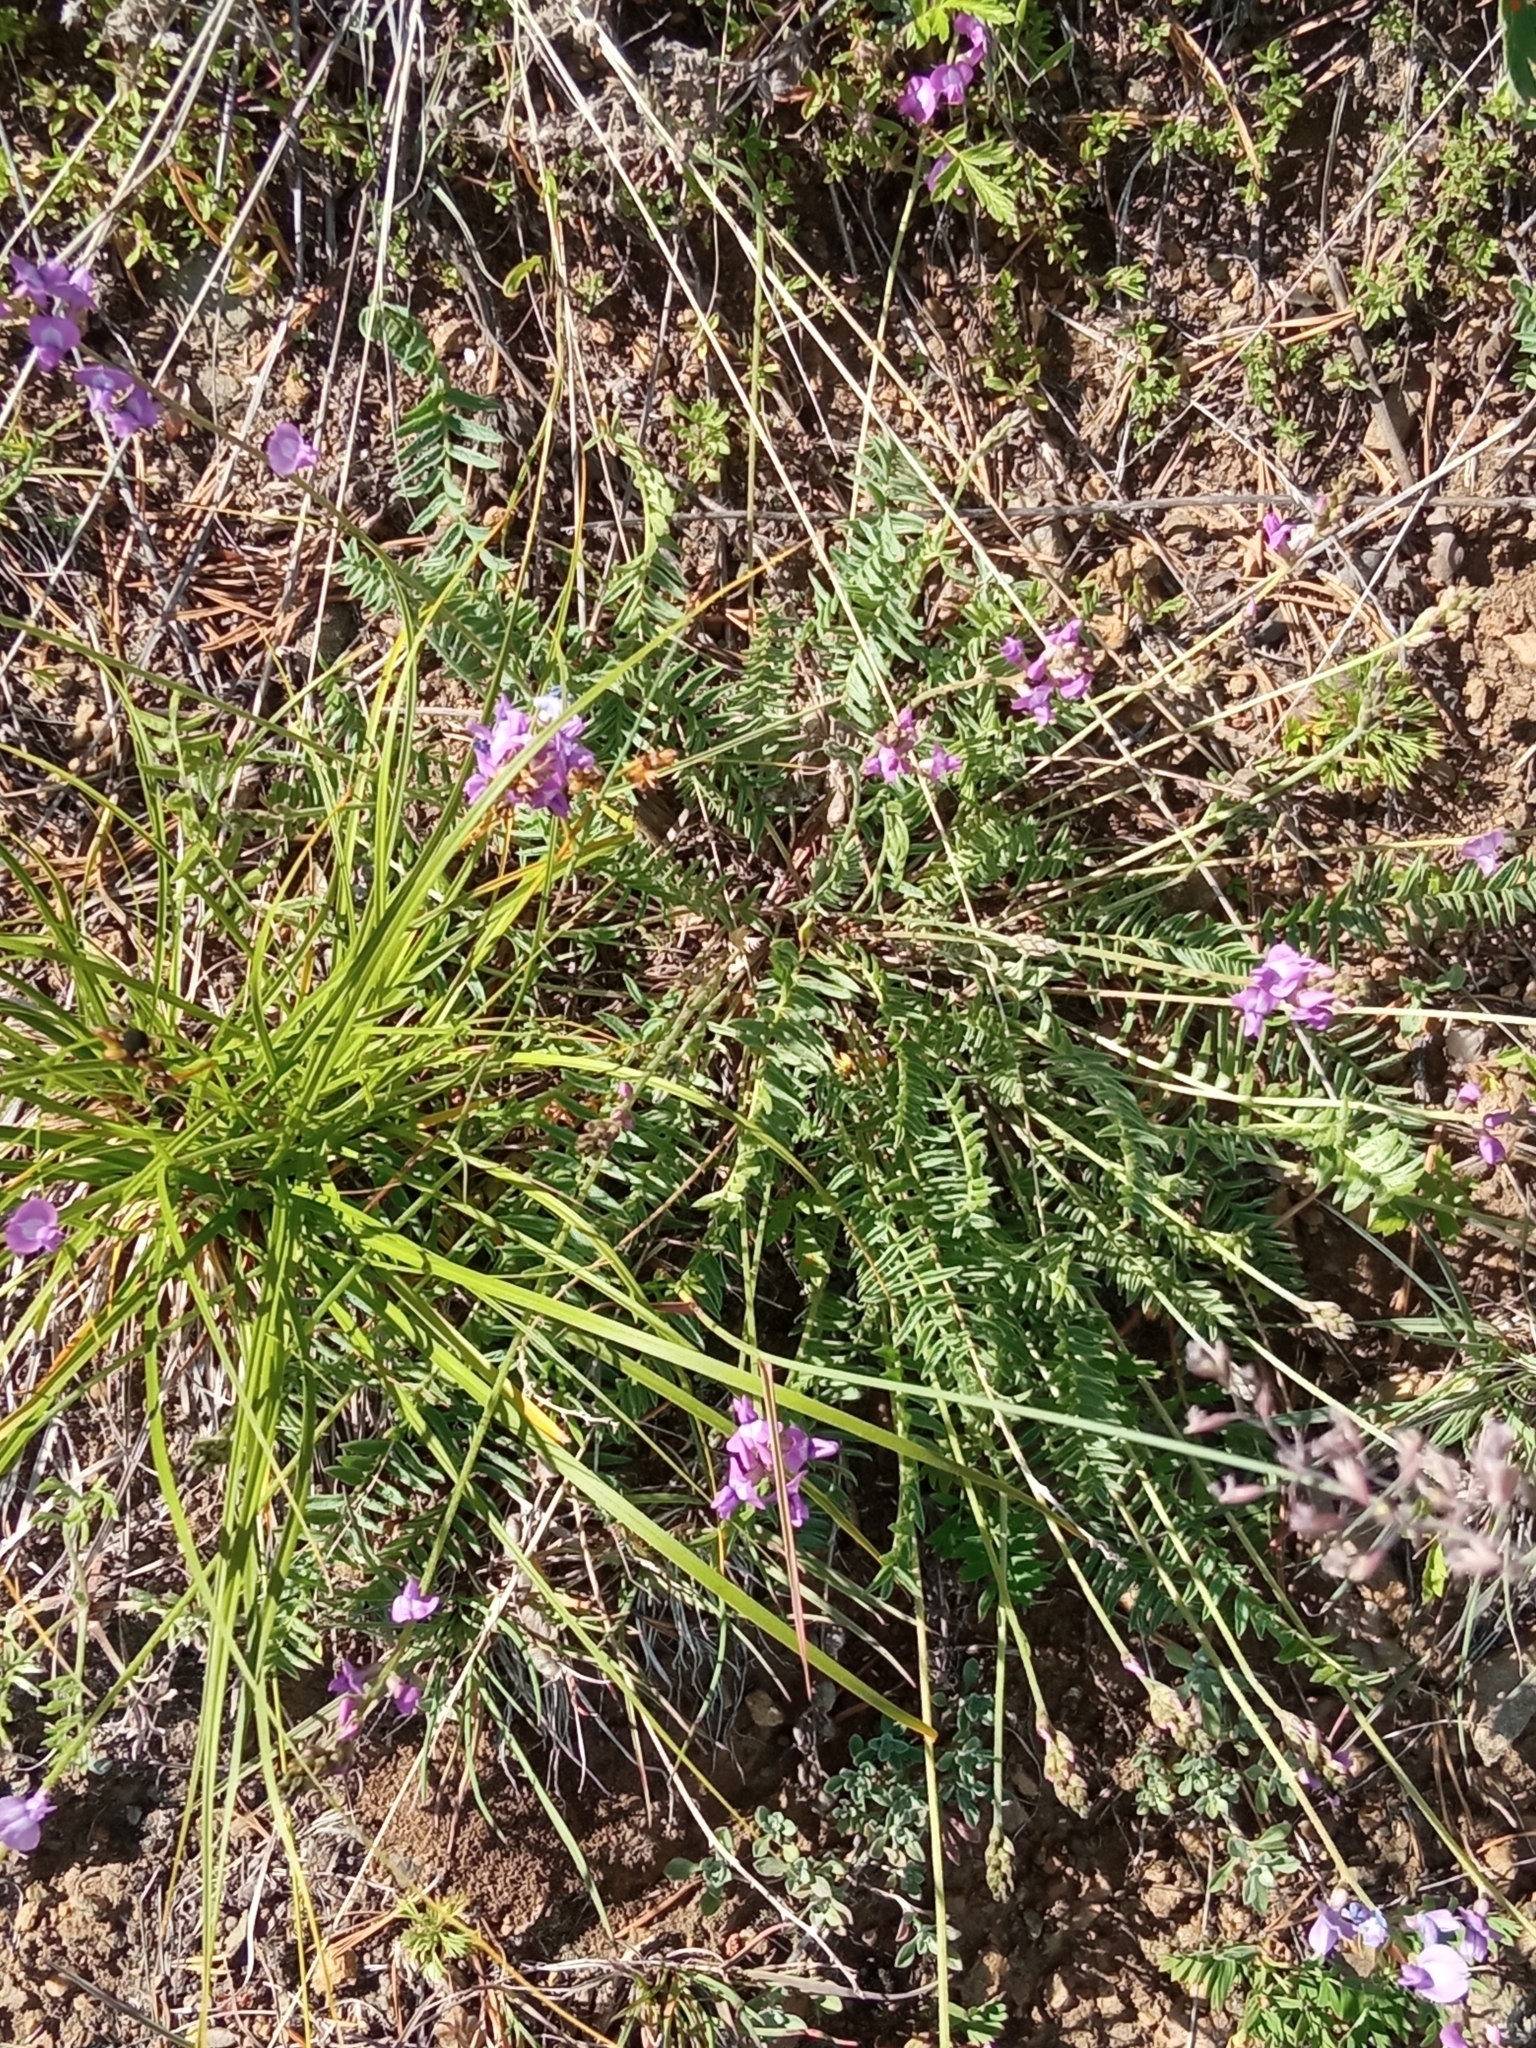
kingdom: Plantae
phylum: Tracheophyta
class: Magnoliopsida
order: Fabales
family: Fabaceae
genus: Oxytropis
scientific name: Oxytropis coerulea
